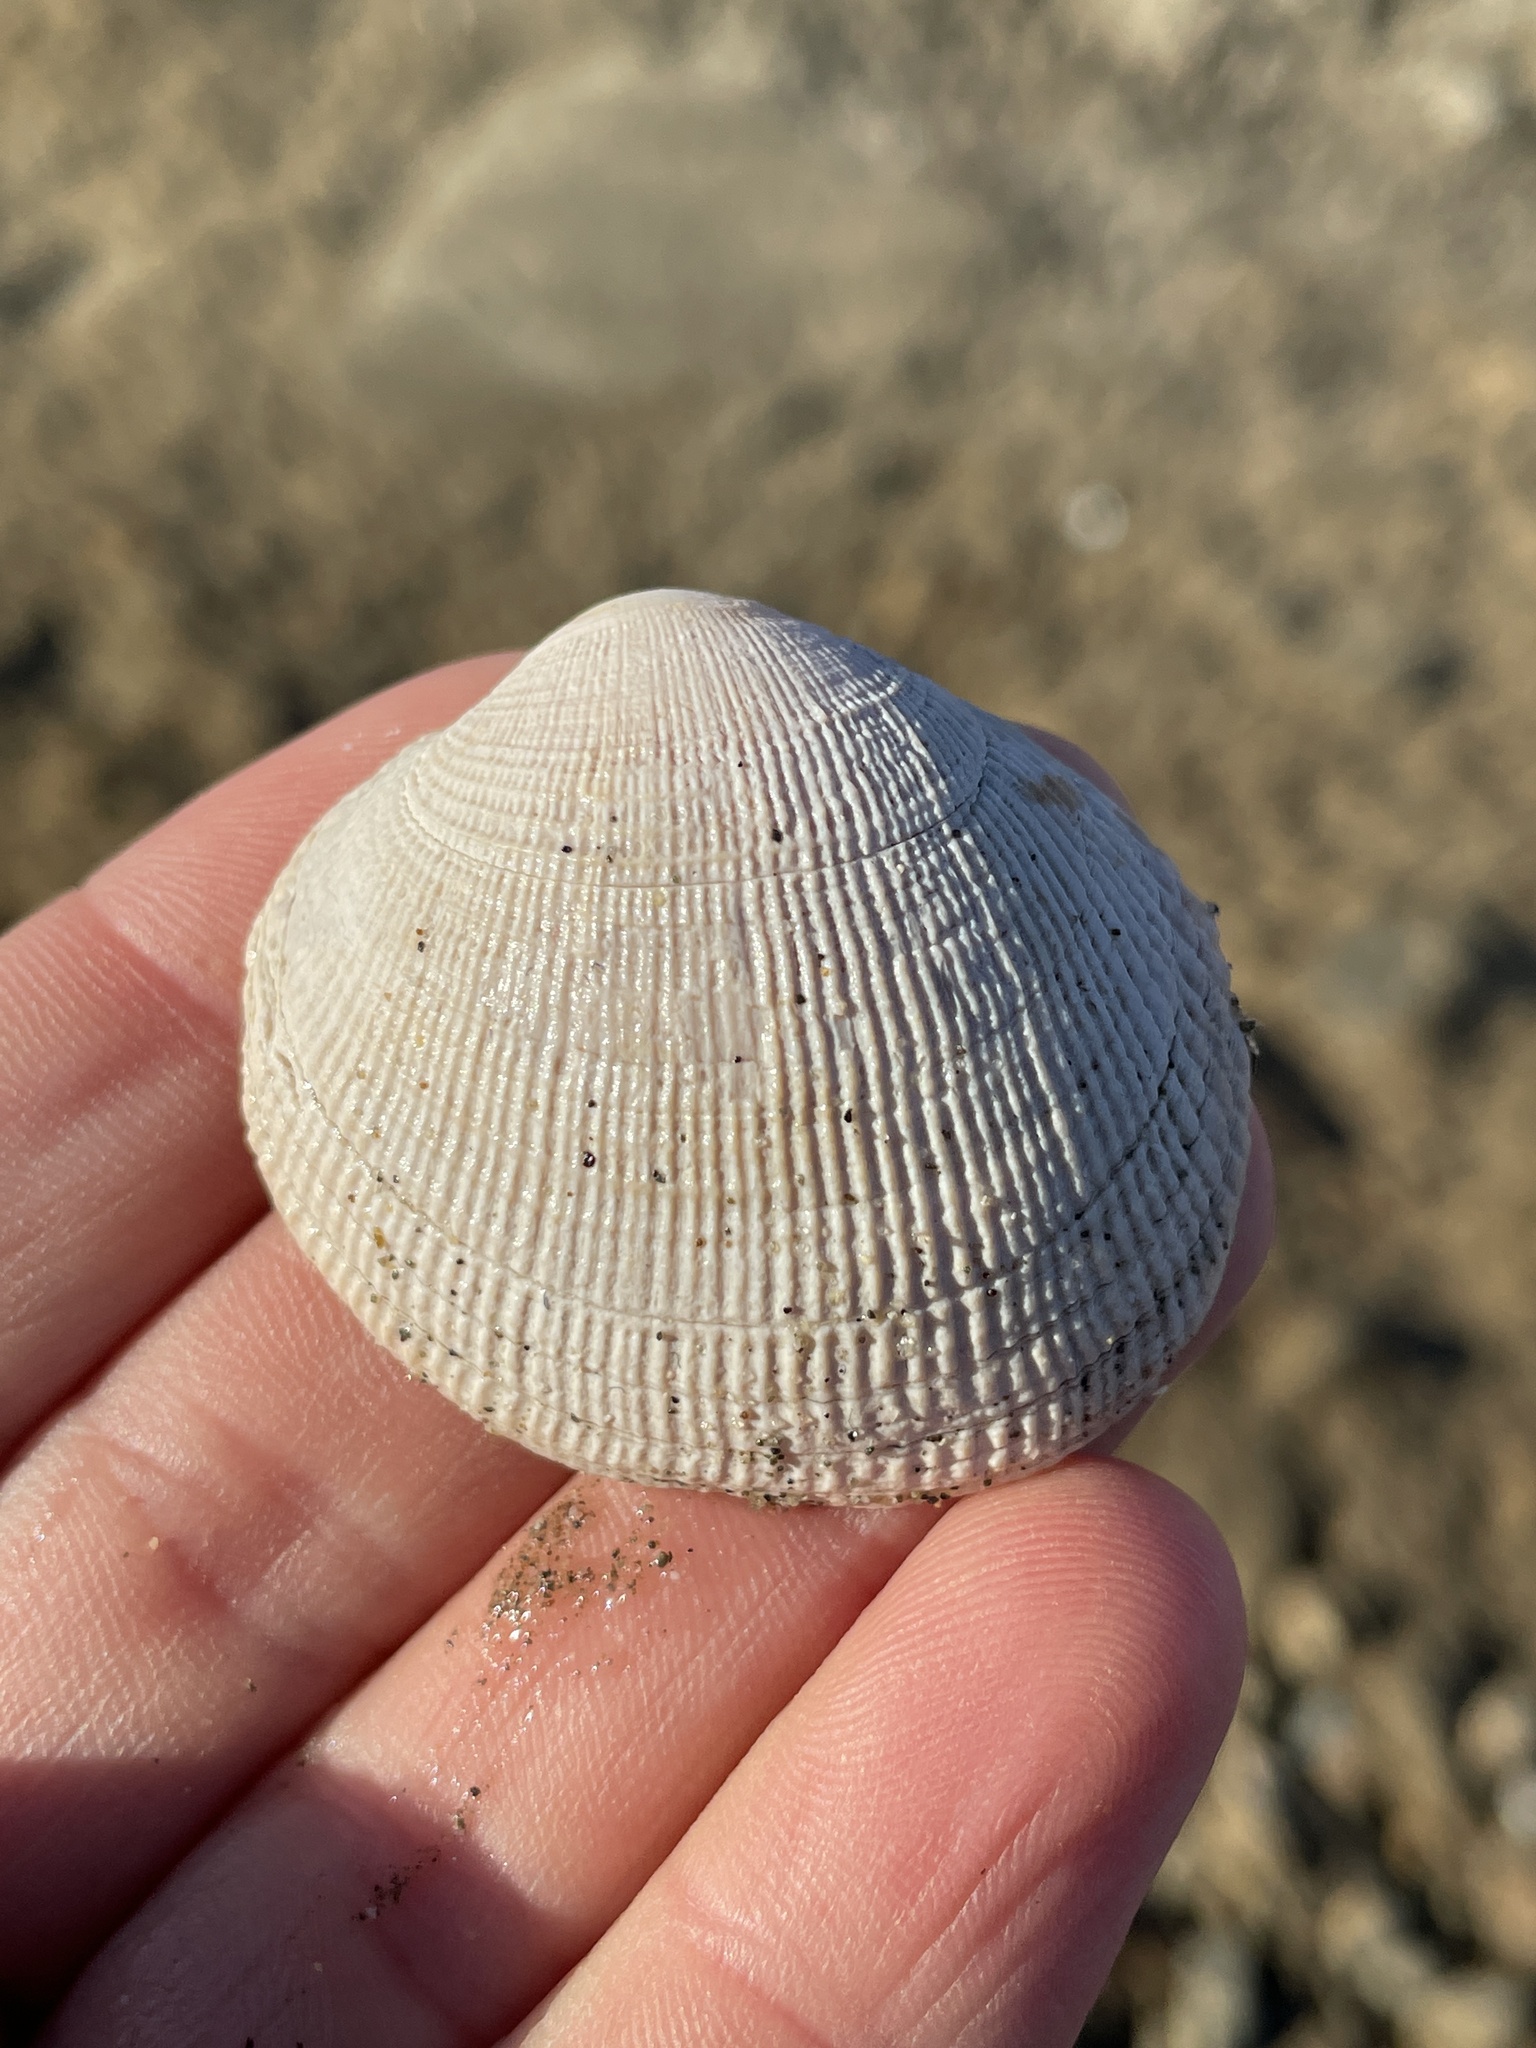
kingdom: Animalia
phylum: Mollusca
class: Bivalvia
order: Venerida
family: Veneridae
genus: Leukoma
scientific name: Leukoma staminea
